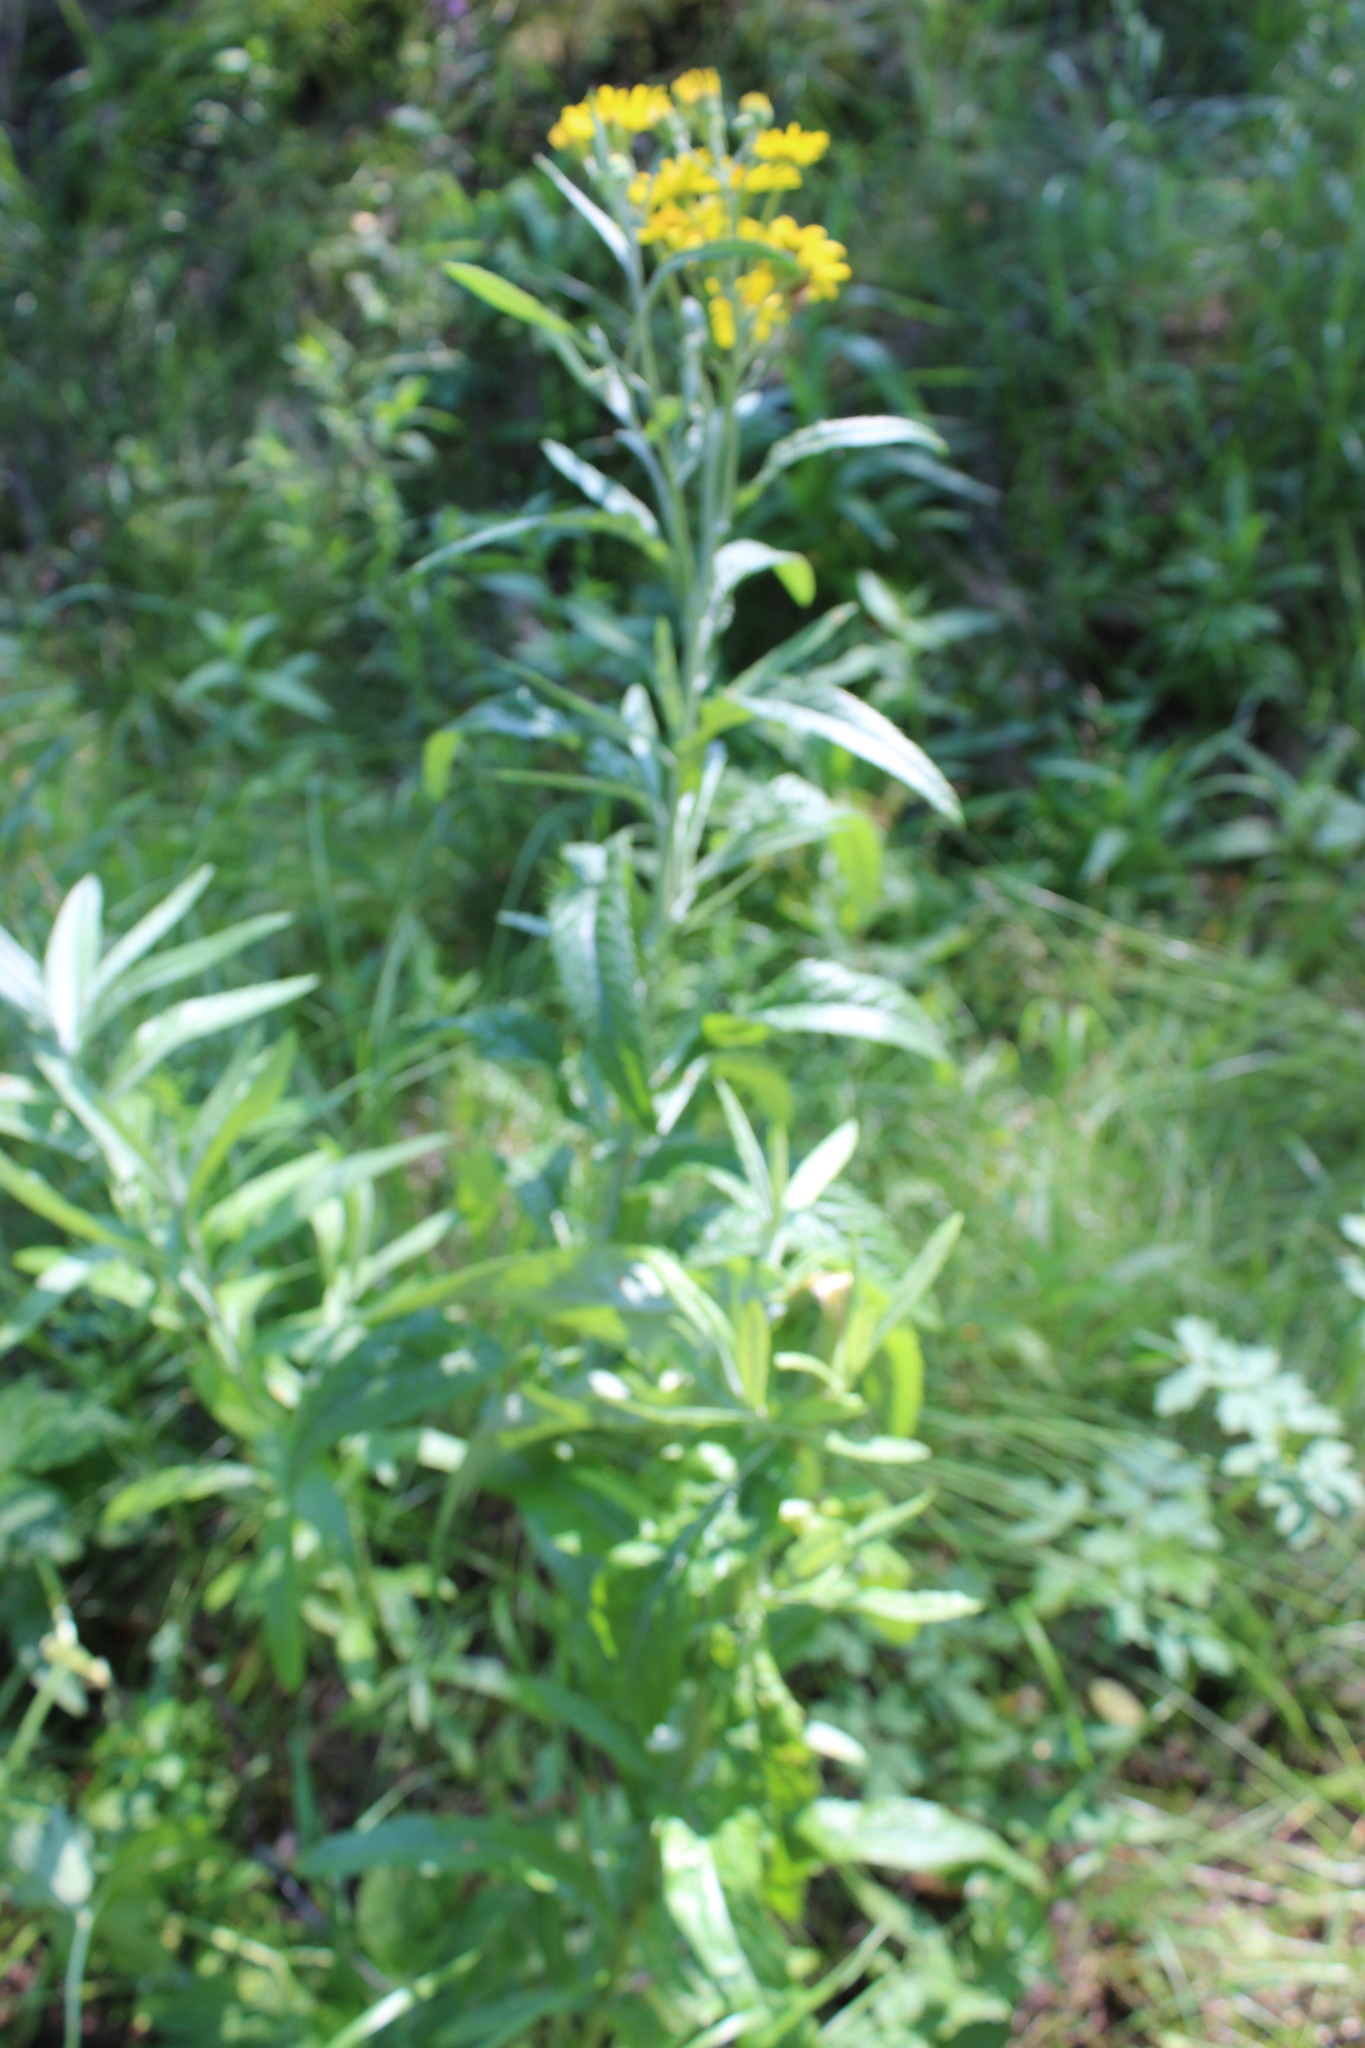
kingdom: Plantae
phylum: Tracheophyta
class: Magnoliopsida
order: Asterales
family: Asteraceae
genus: Jacobaea
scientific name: Jacobaea paludosa
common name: Fen ragwort
